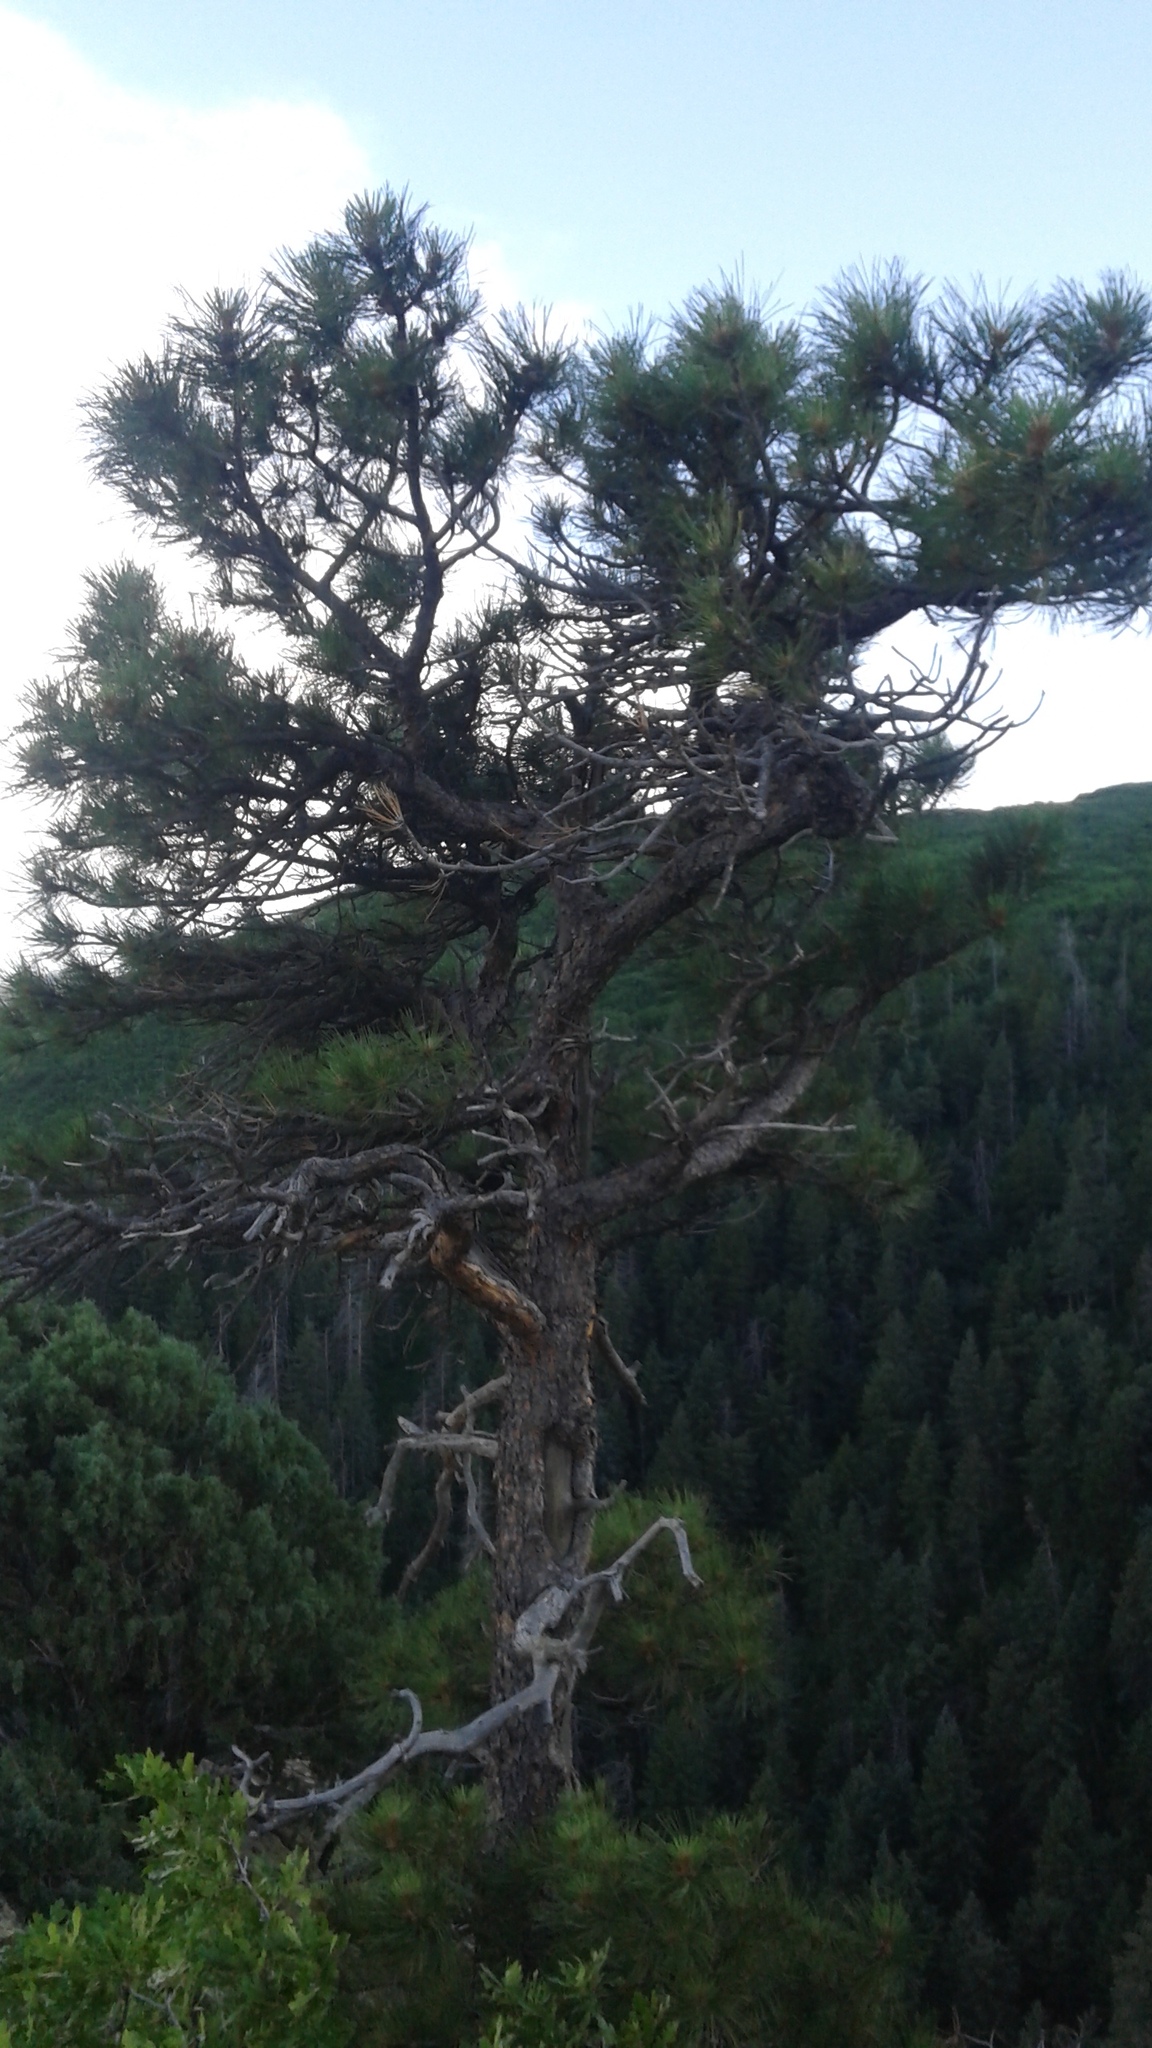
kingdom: Plantae
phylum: Tracheophyta
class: Pinopsida
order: Pinales
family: Pinaceae
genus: Pinus
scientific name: Pinus ponderosa
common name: Western yellow-pine
